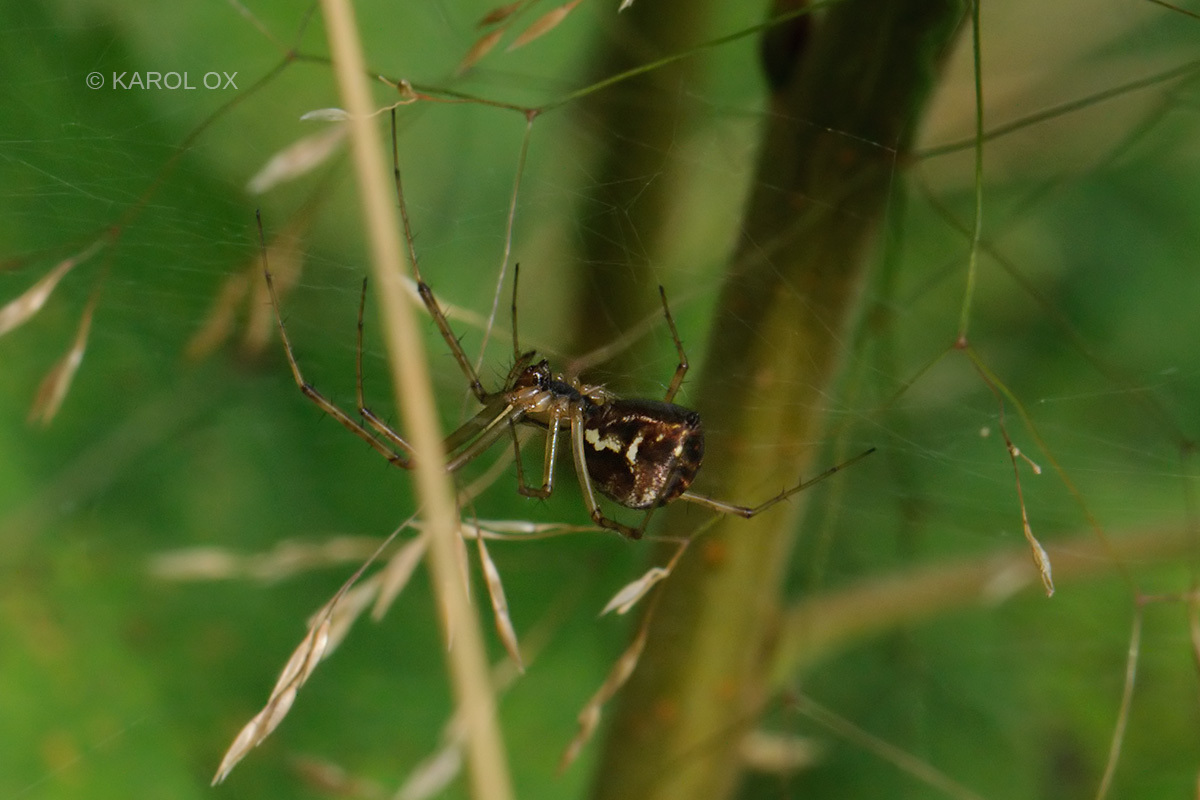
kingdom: Animalia
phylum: Arthropoda
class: Arachnida
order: Araneae
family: Linyphiidae
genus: Linyphia
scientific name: Linyphia triangularis
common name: Money spider
